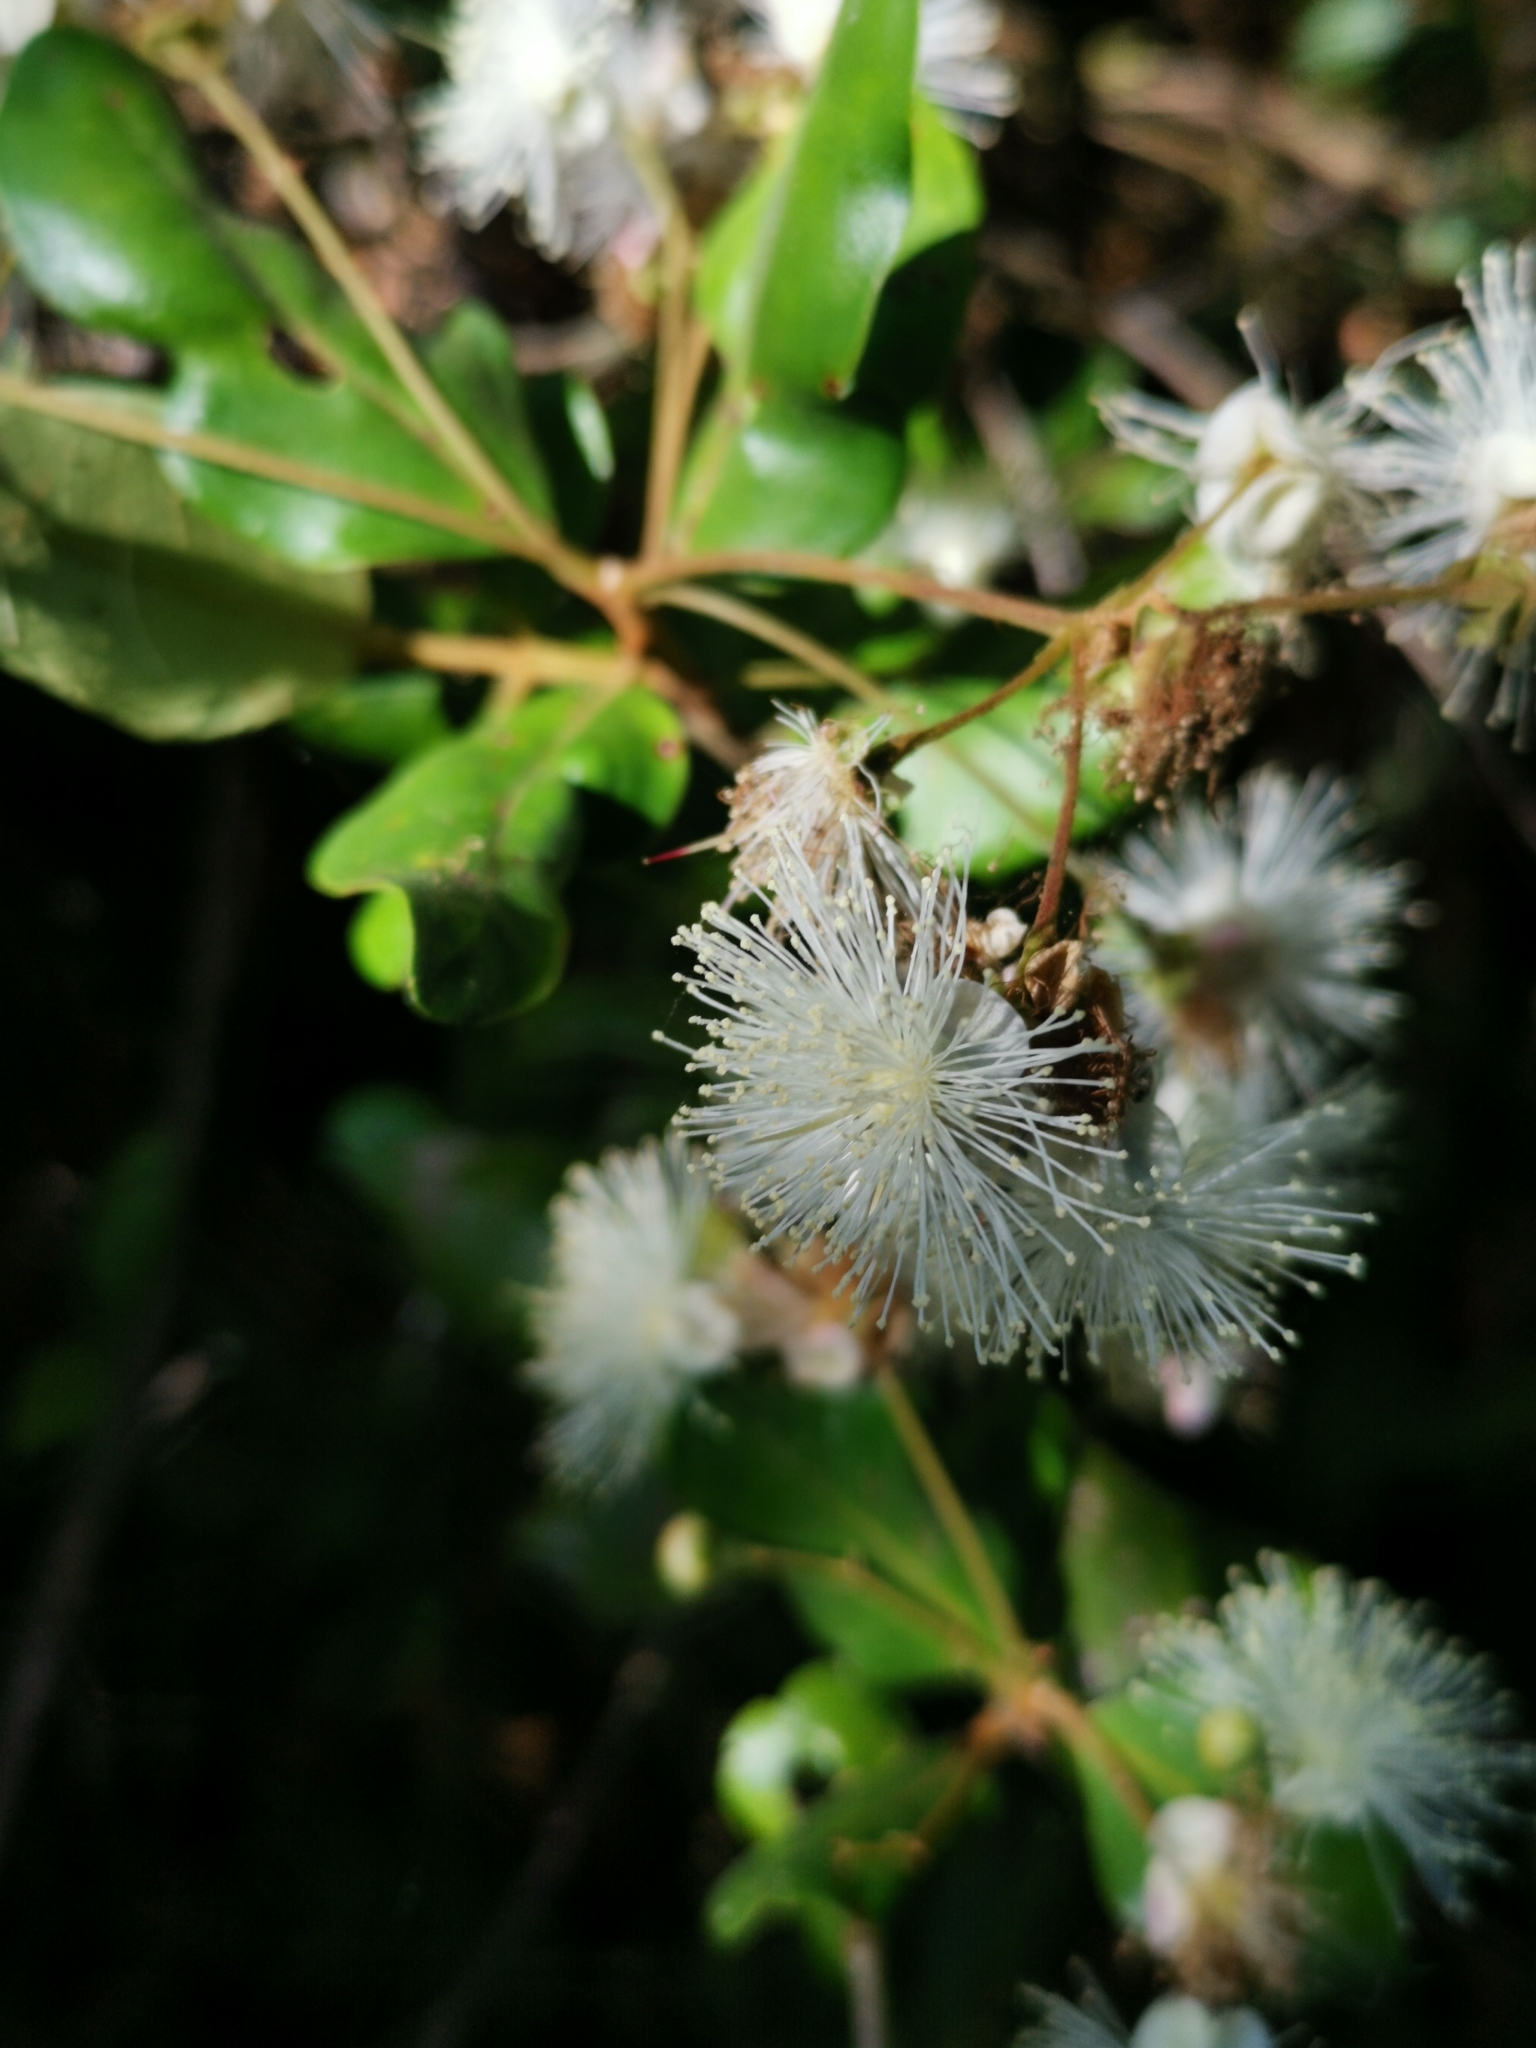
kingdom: Plantae
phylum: Tracheophyta
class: Magnoliopsida
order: Myrtales
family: Myrtaceae
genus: Myrceugenia
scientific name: Myrceugenia exsucca
